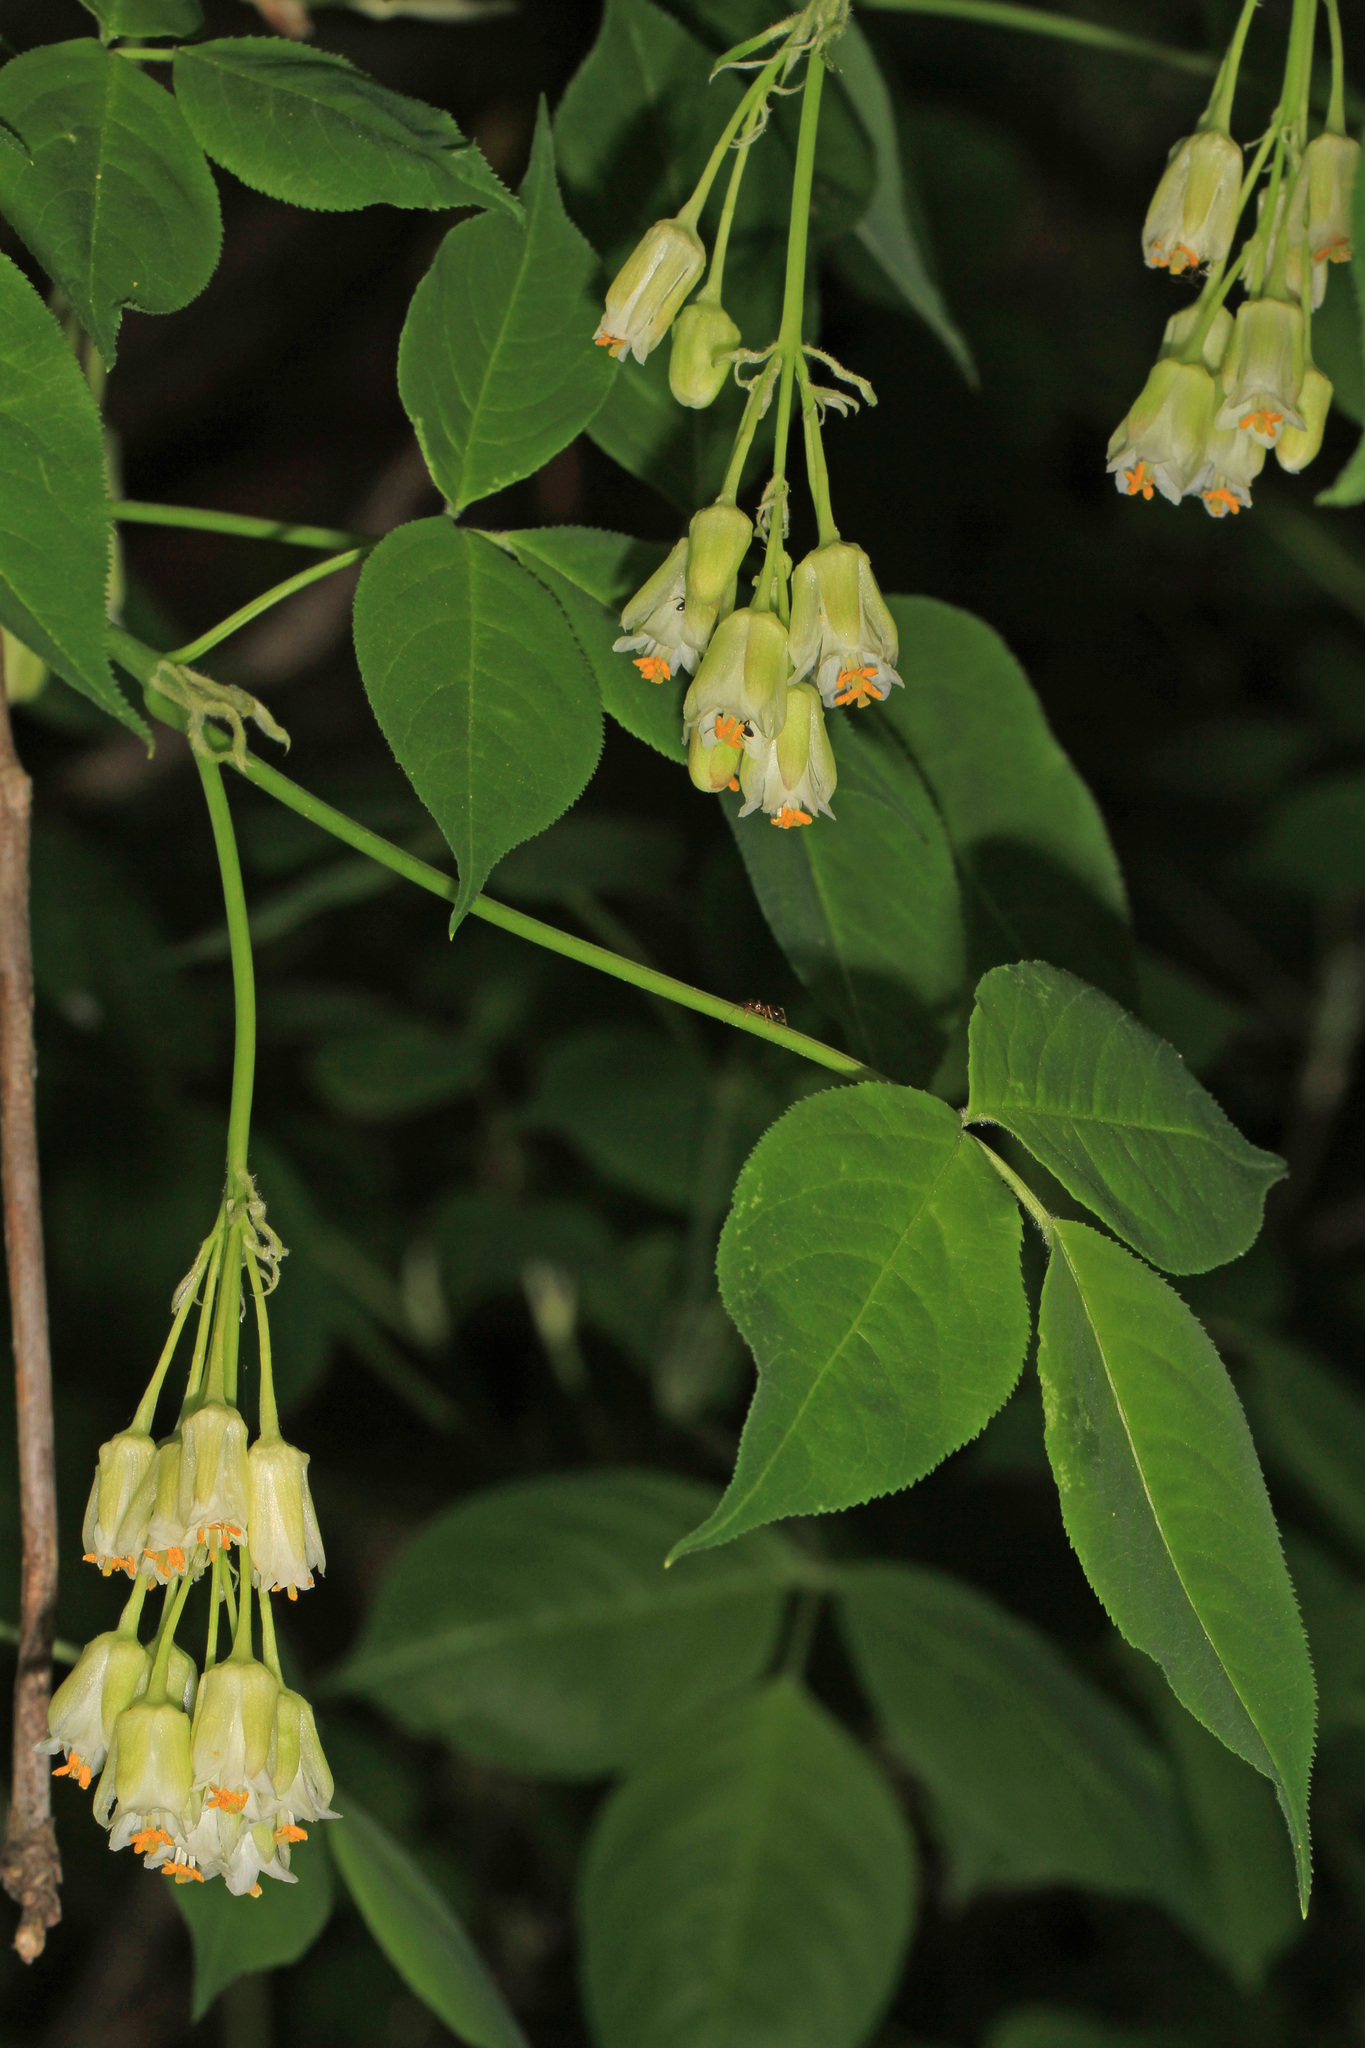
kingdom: Plantae
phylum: Tracheophyta
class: Magnoliopsida
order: Crossosomatales
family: Staphyleaceae
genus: Staphylea
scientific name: Staphylea trifolia
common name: American bladdernut
